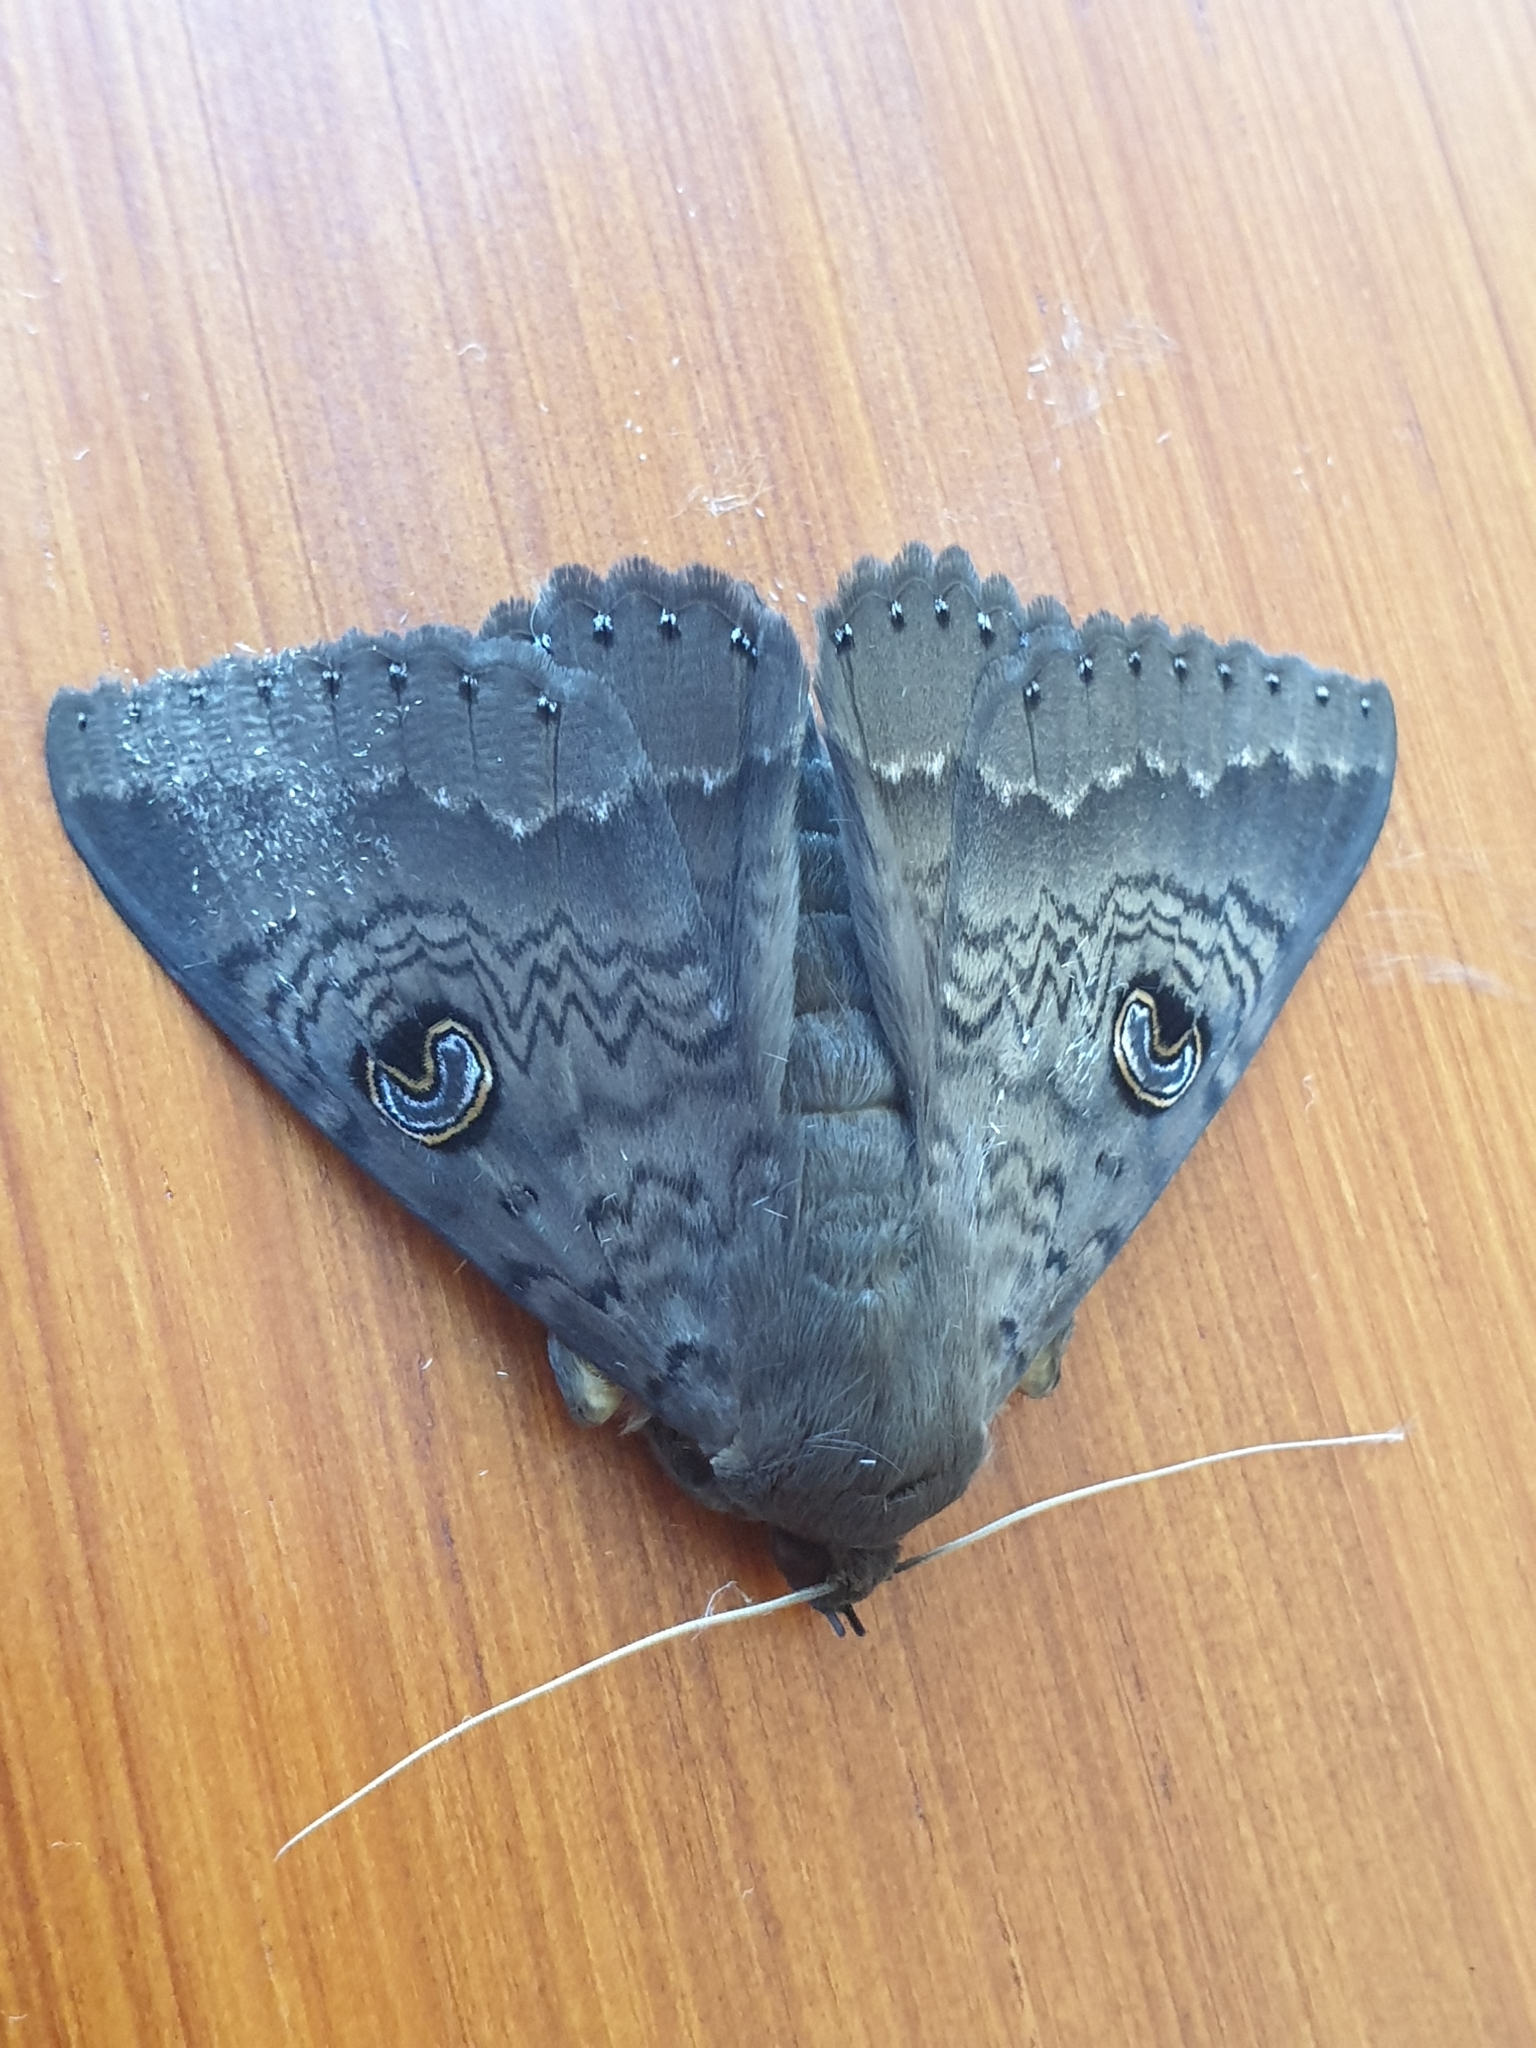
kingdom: Animalia
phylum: Arthropoda
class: Insecta
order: Lepidoptera
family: Erebidae
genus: Dasypodia
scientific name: Dasypodia cymatodes
